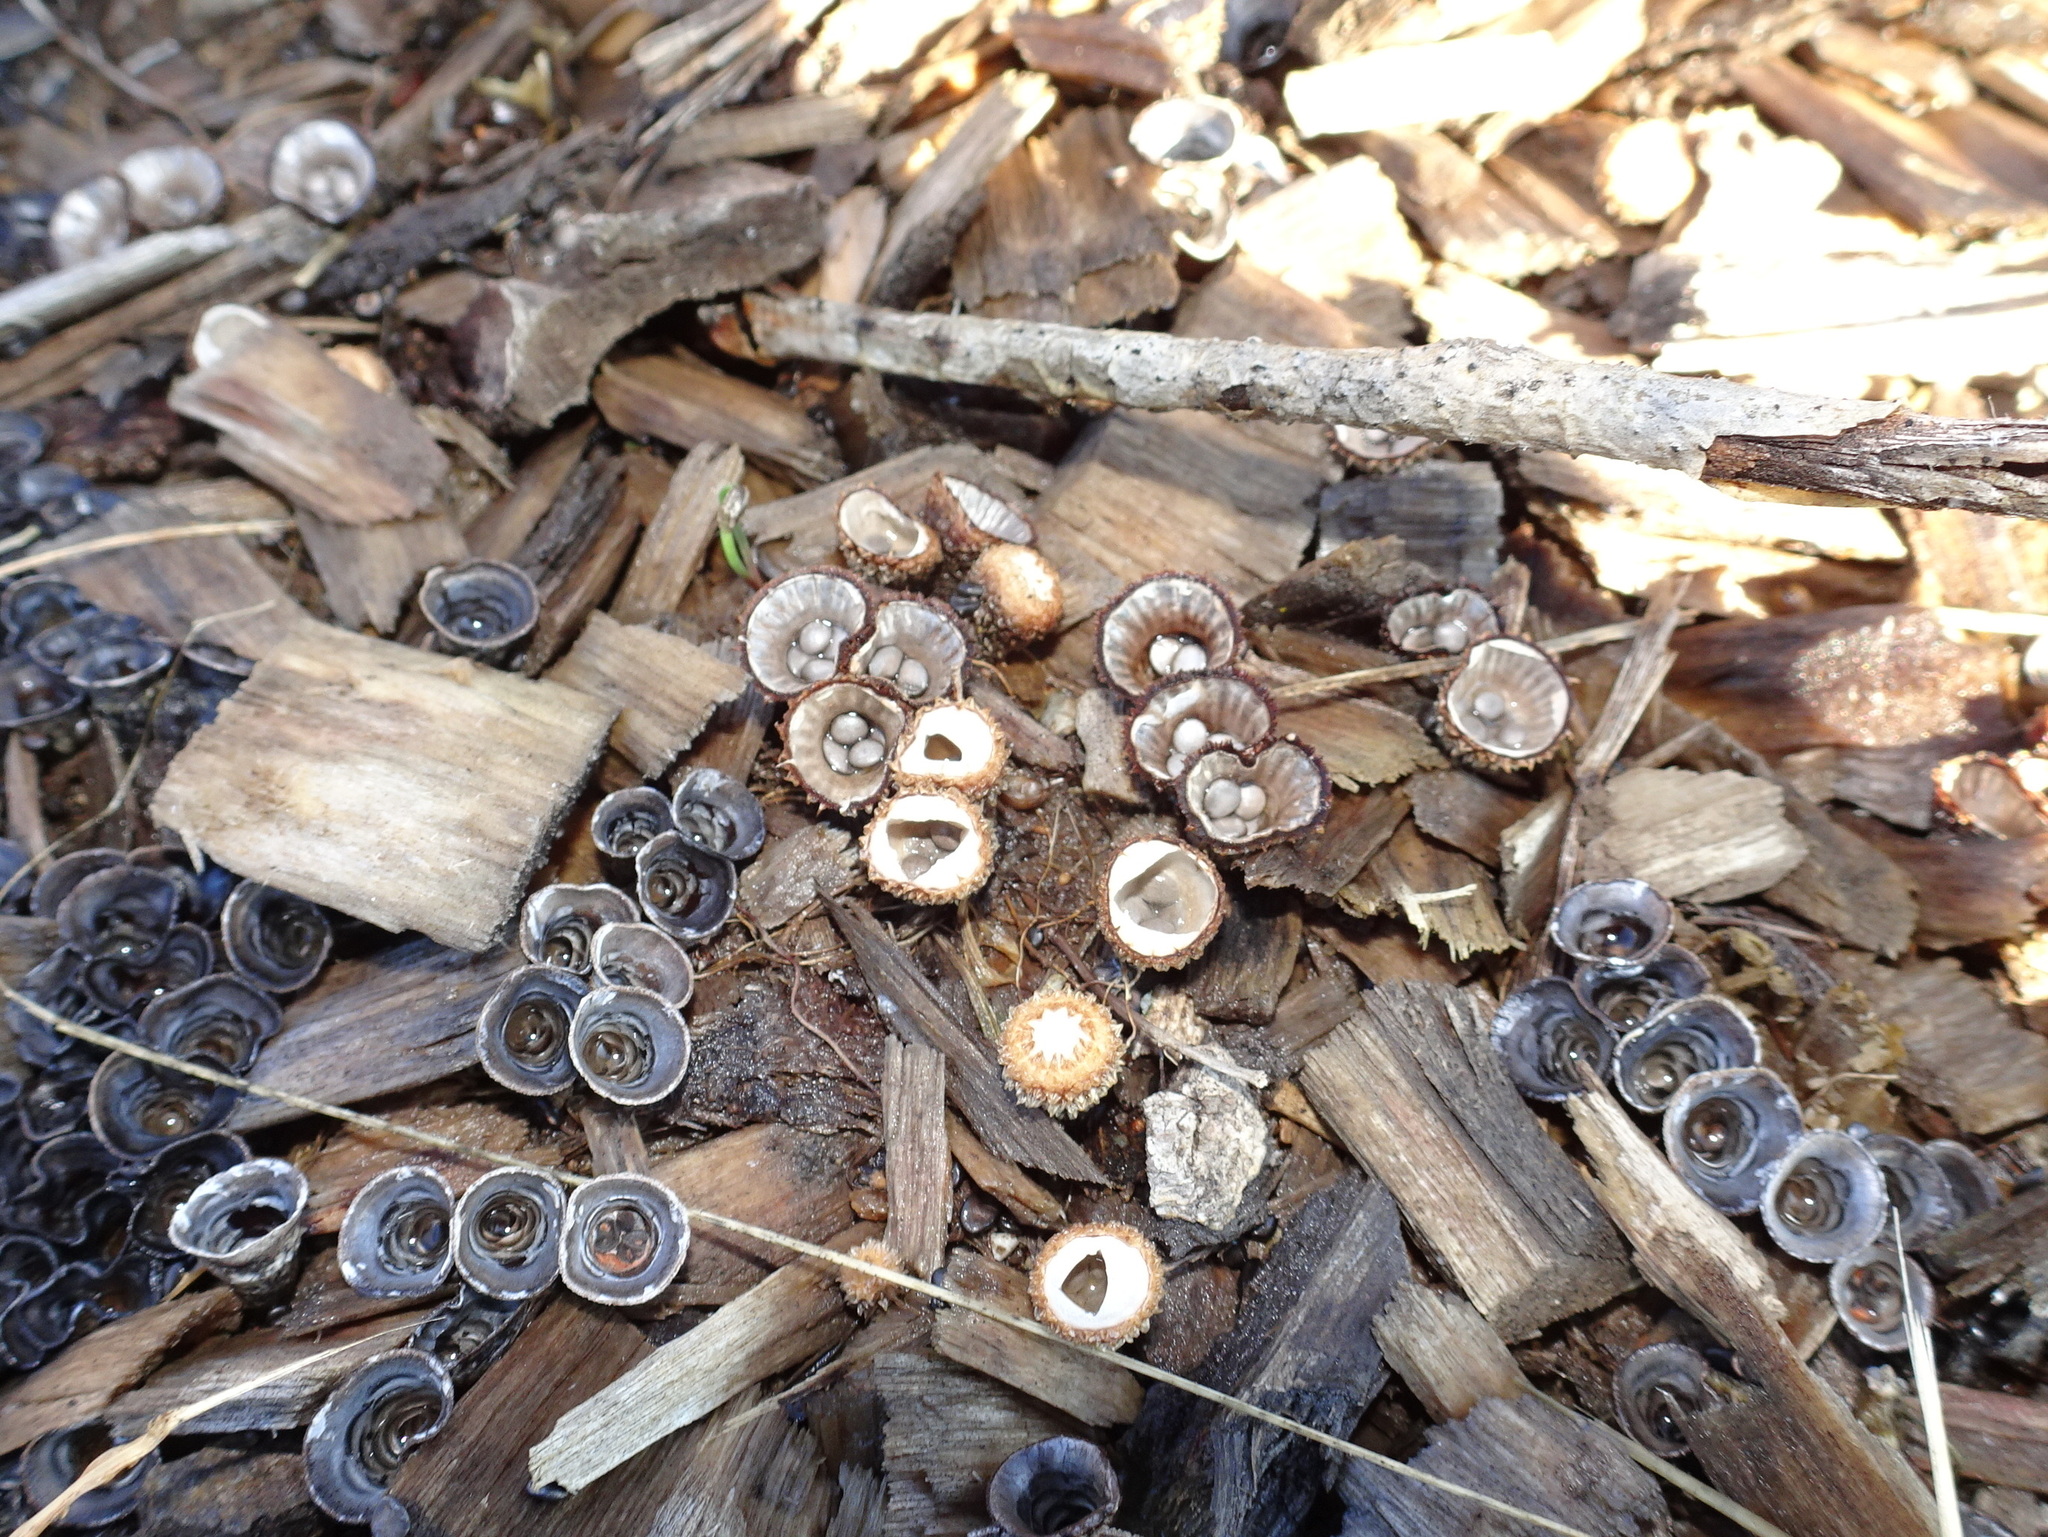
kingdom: Fungi
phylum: Basidiomycota
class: Agaricomycetes
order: Agaricales
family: Agaricaceae
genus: Cyathus
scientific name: Cyathus striatus
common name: Fluted bird's nest
